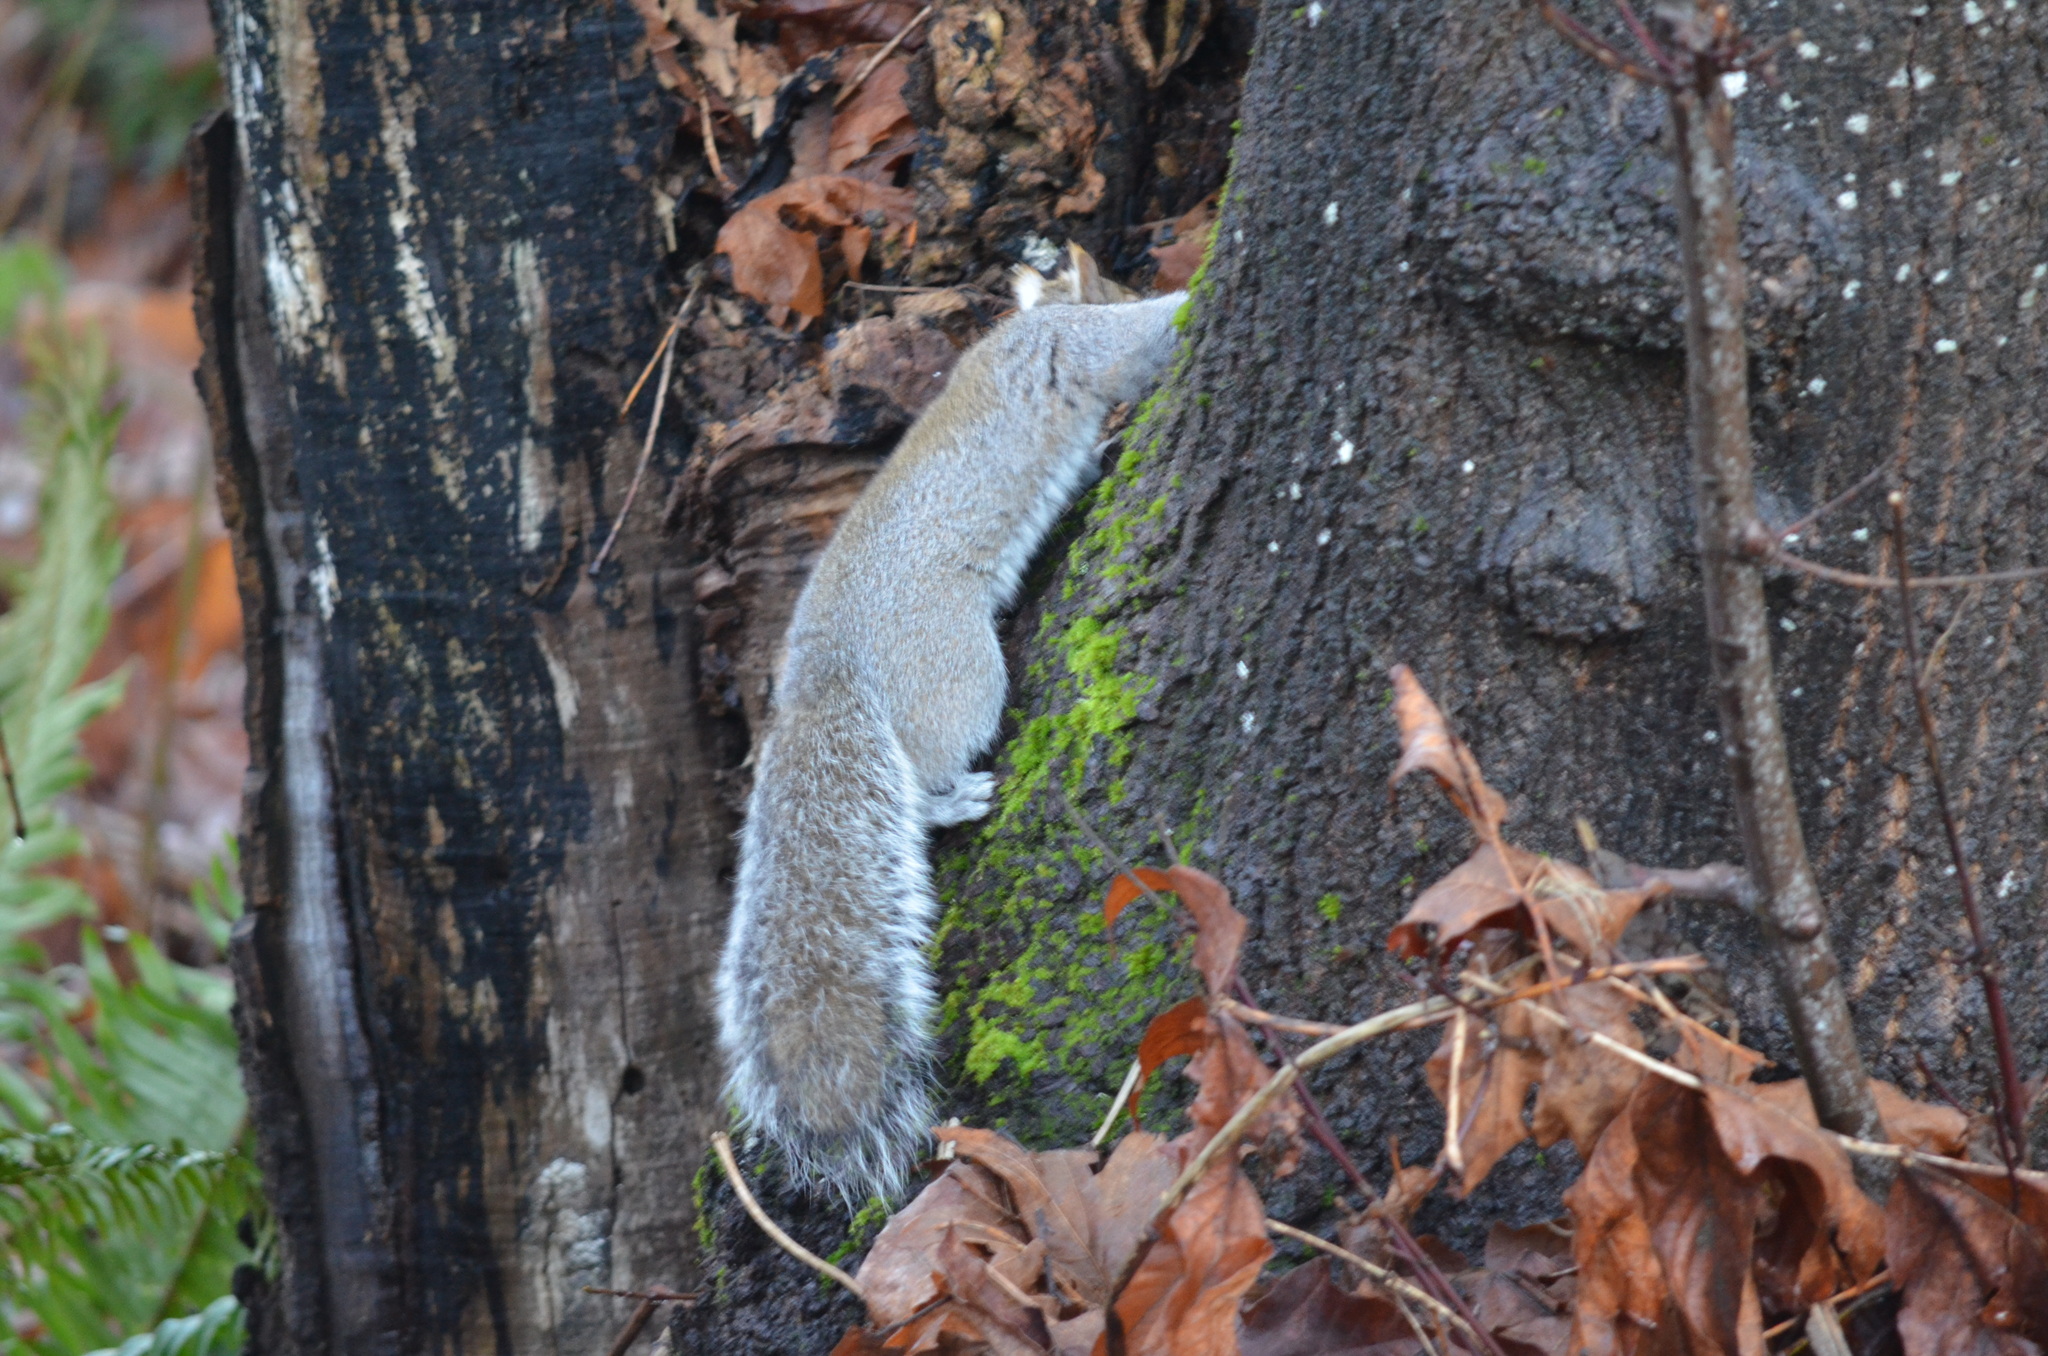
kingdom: Animalia
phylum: Chordata
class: Mammalia
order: Rodentia
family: Sciuridae
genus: Sciurus
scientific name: Sciurus carolinensis
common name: Eastern gray squirrel
